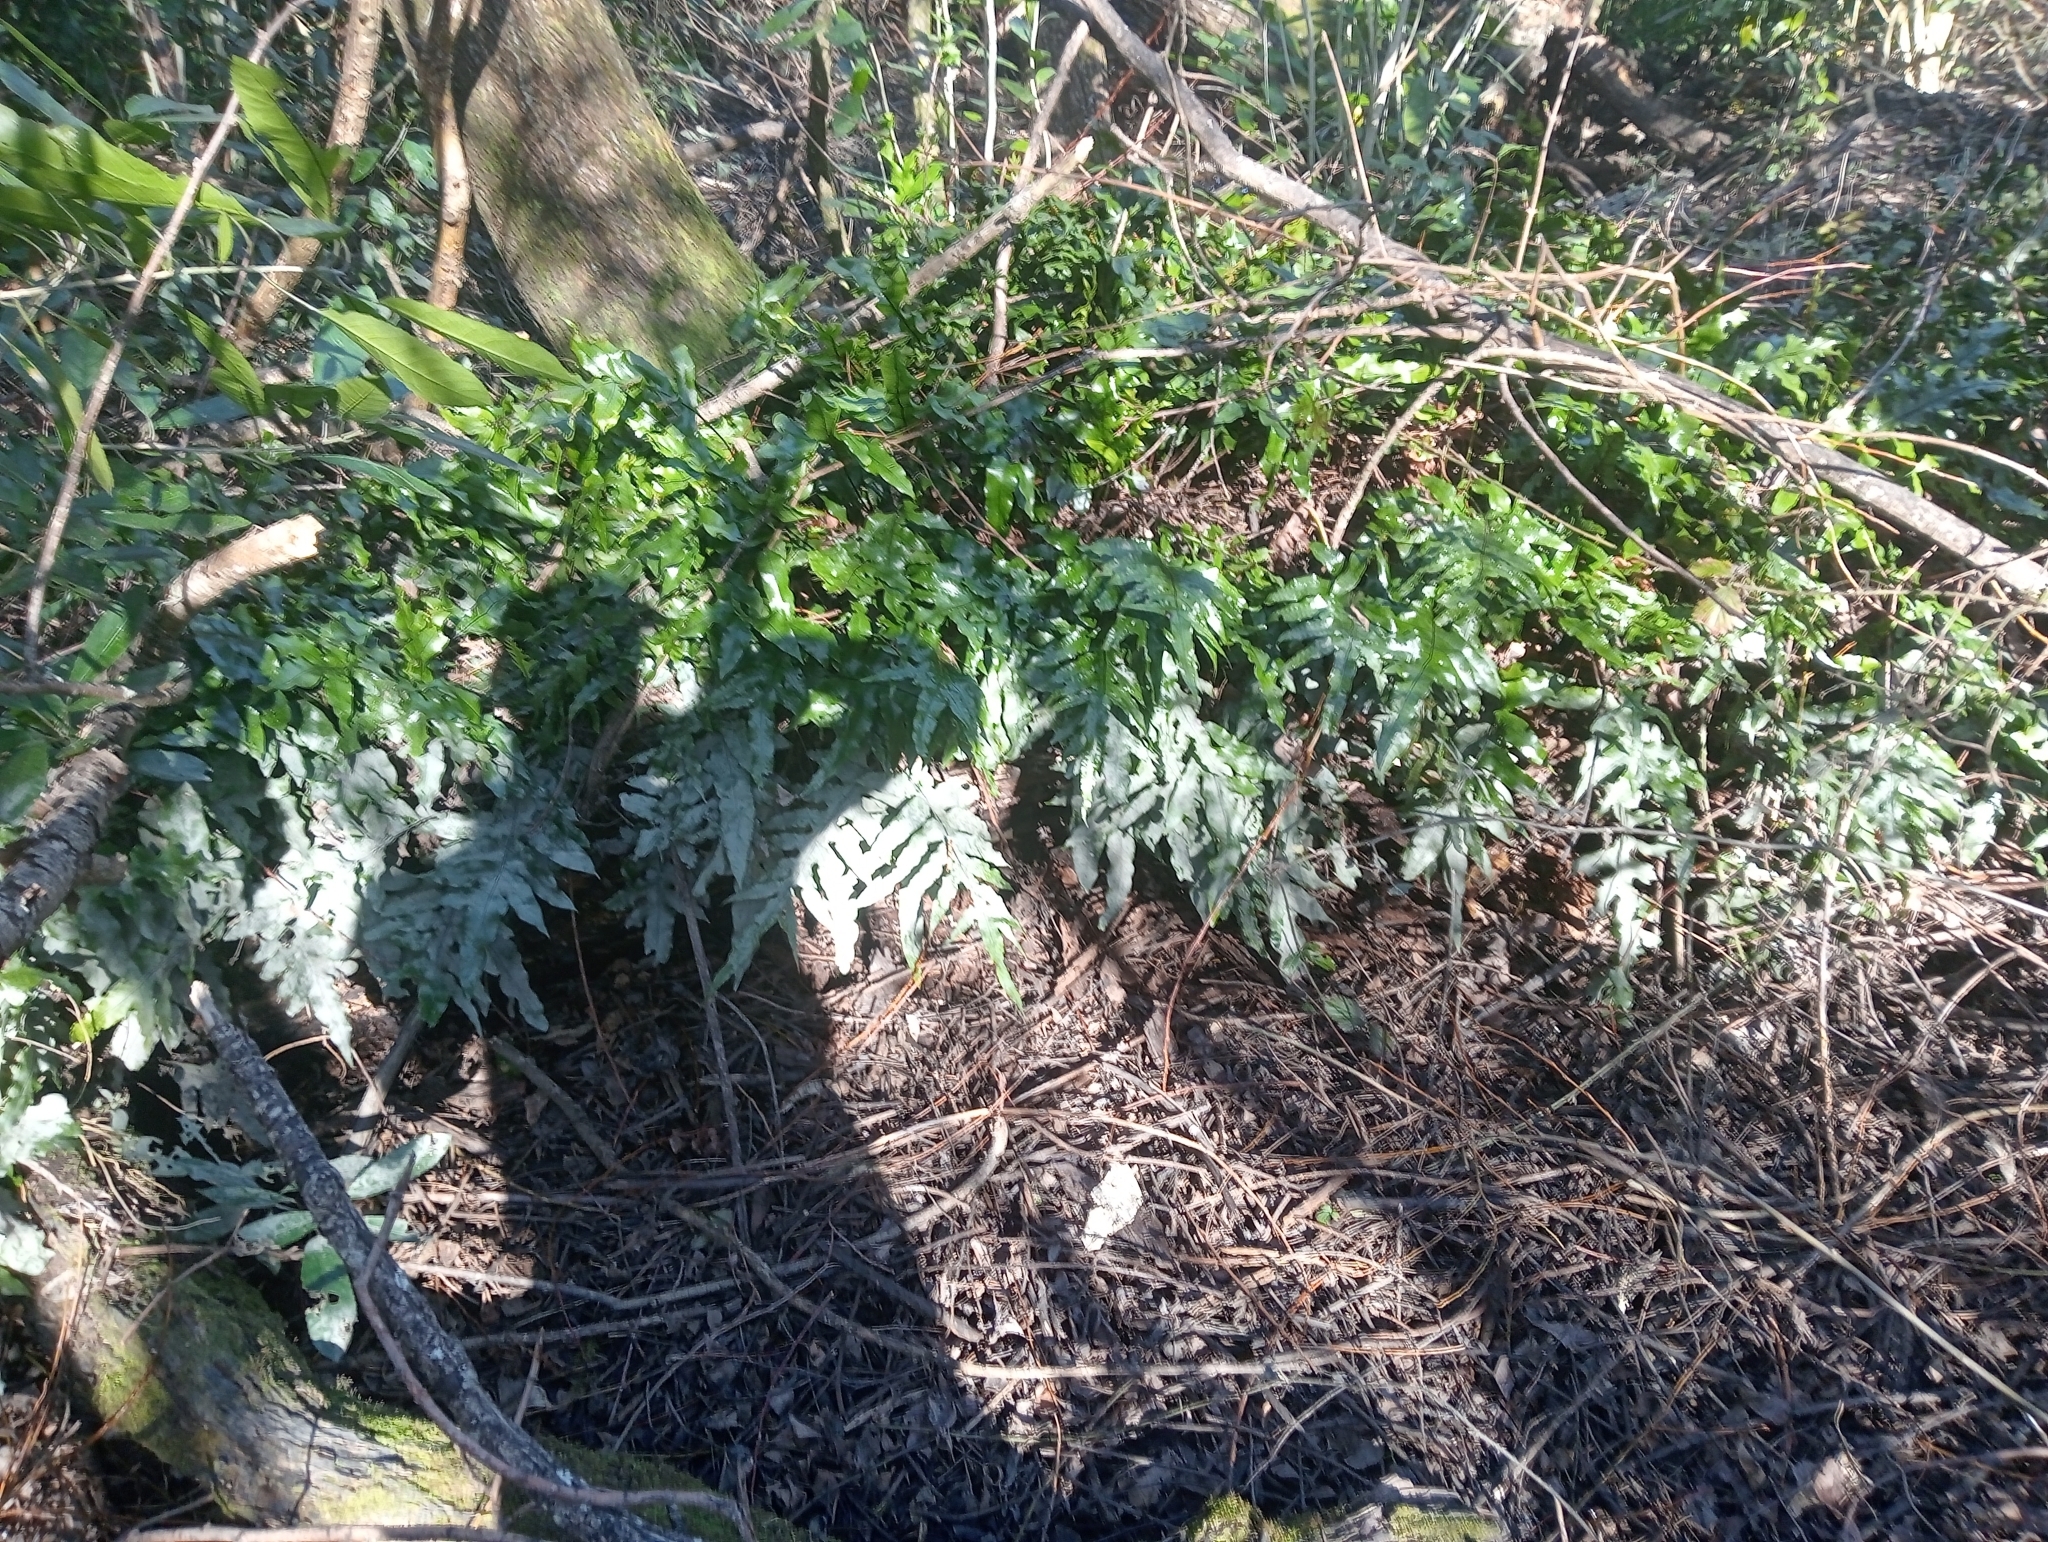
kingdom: Plantae
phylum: Tracheophyta
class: Polypodiopsida
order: Polypodiales
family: Polypodiaceae
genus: Lecanopteris
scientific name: Lecanopteris pustulata
